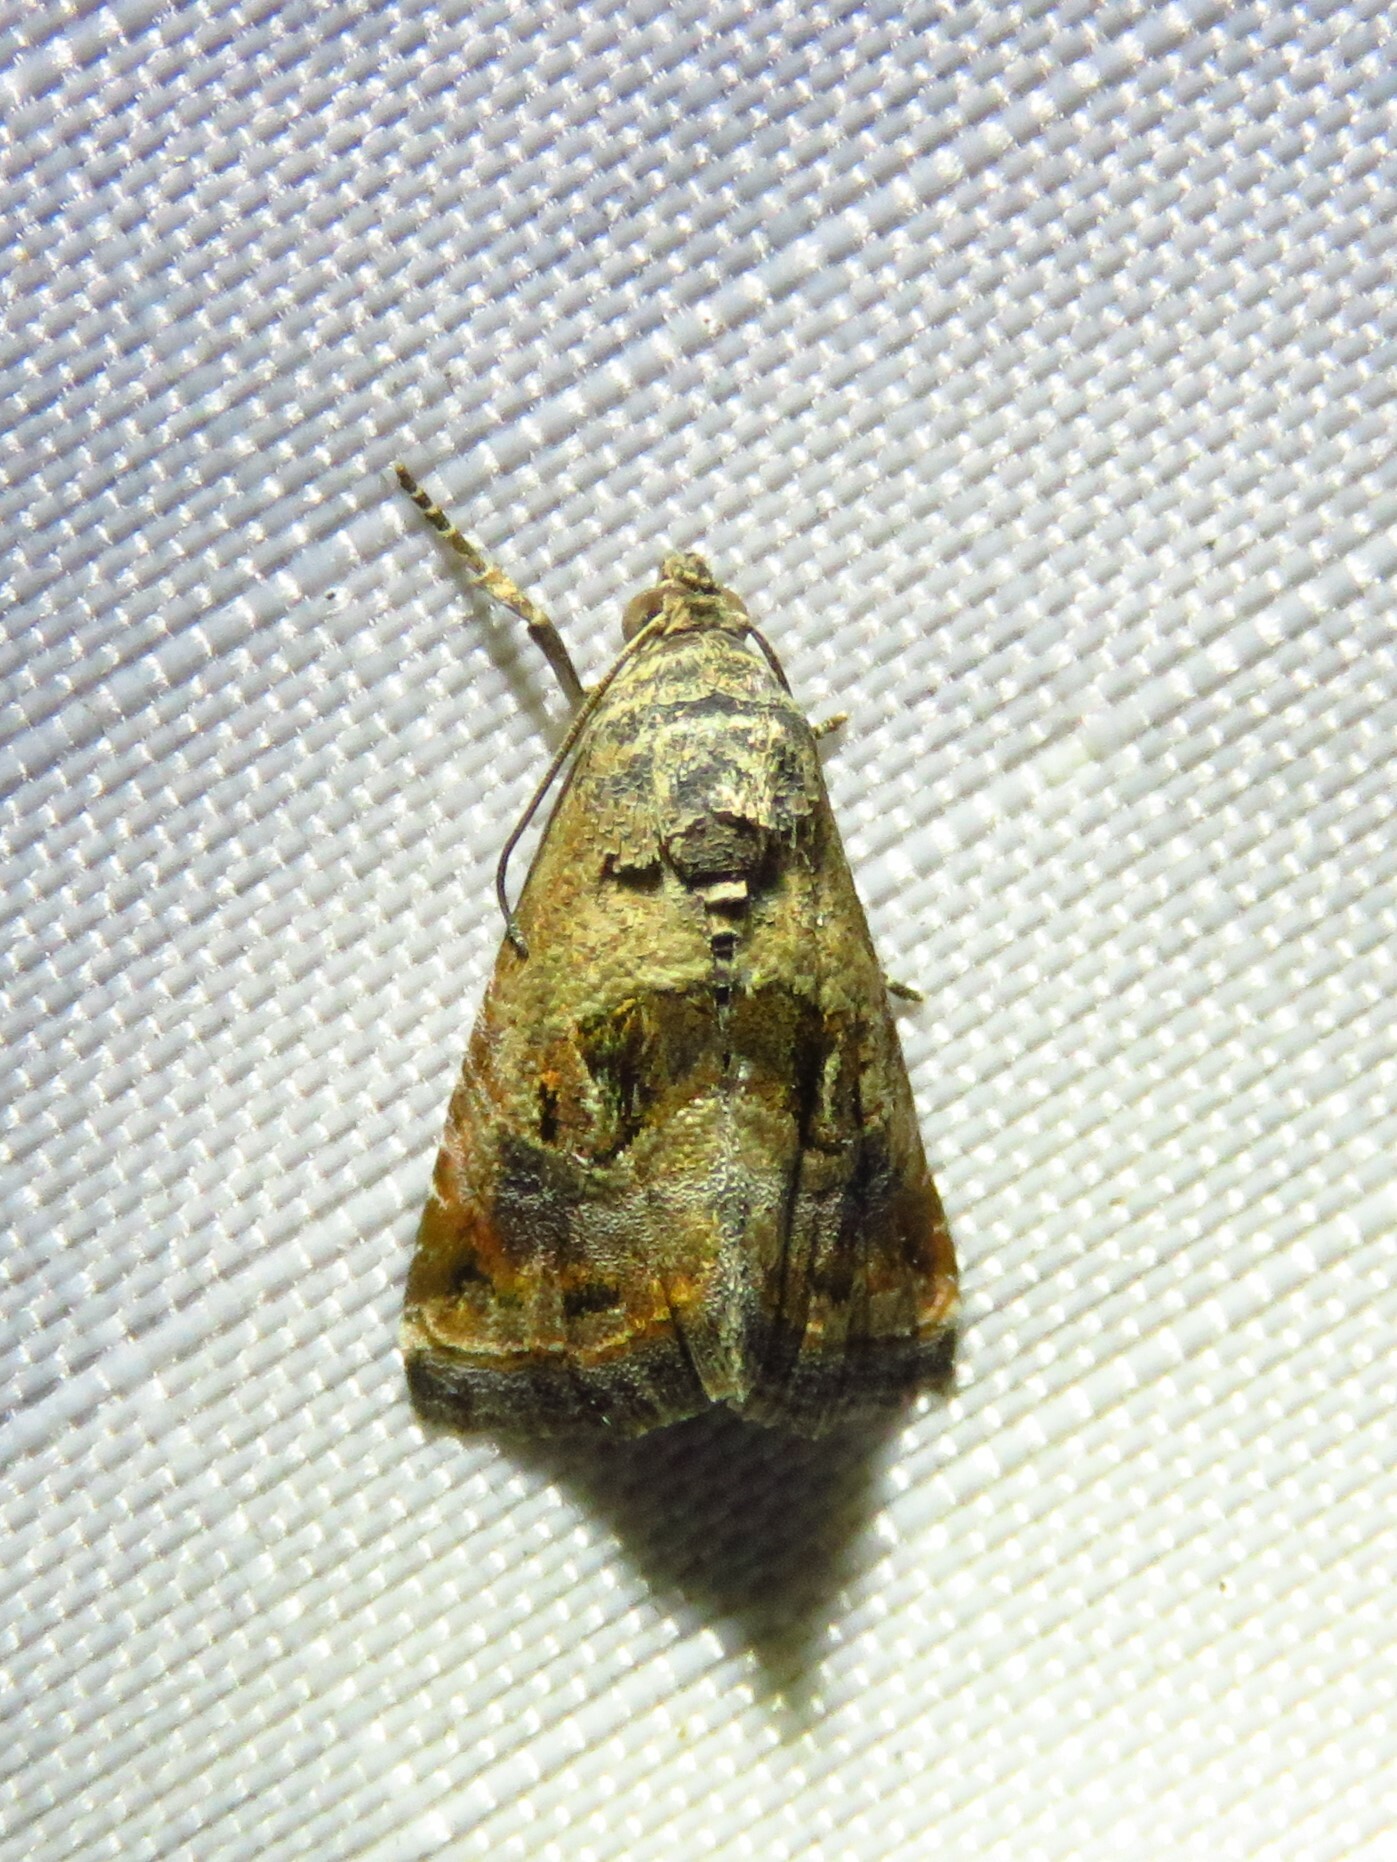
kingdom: Animalia
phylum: Arthropoda
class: Insecta
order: Lepidoptera
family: Noctuidae
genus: Tripudia
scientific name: Tripudia quadrifera
